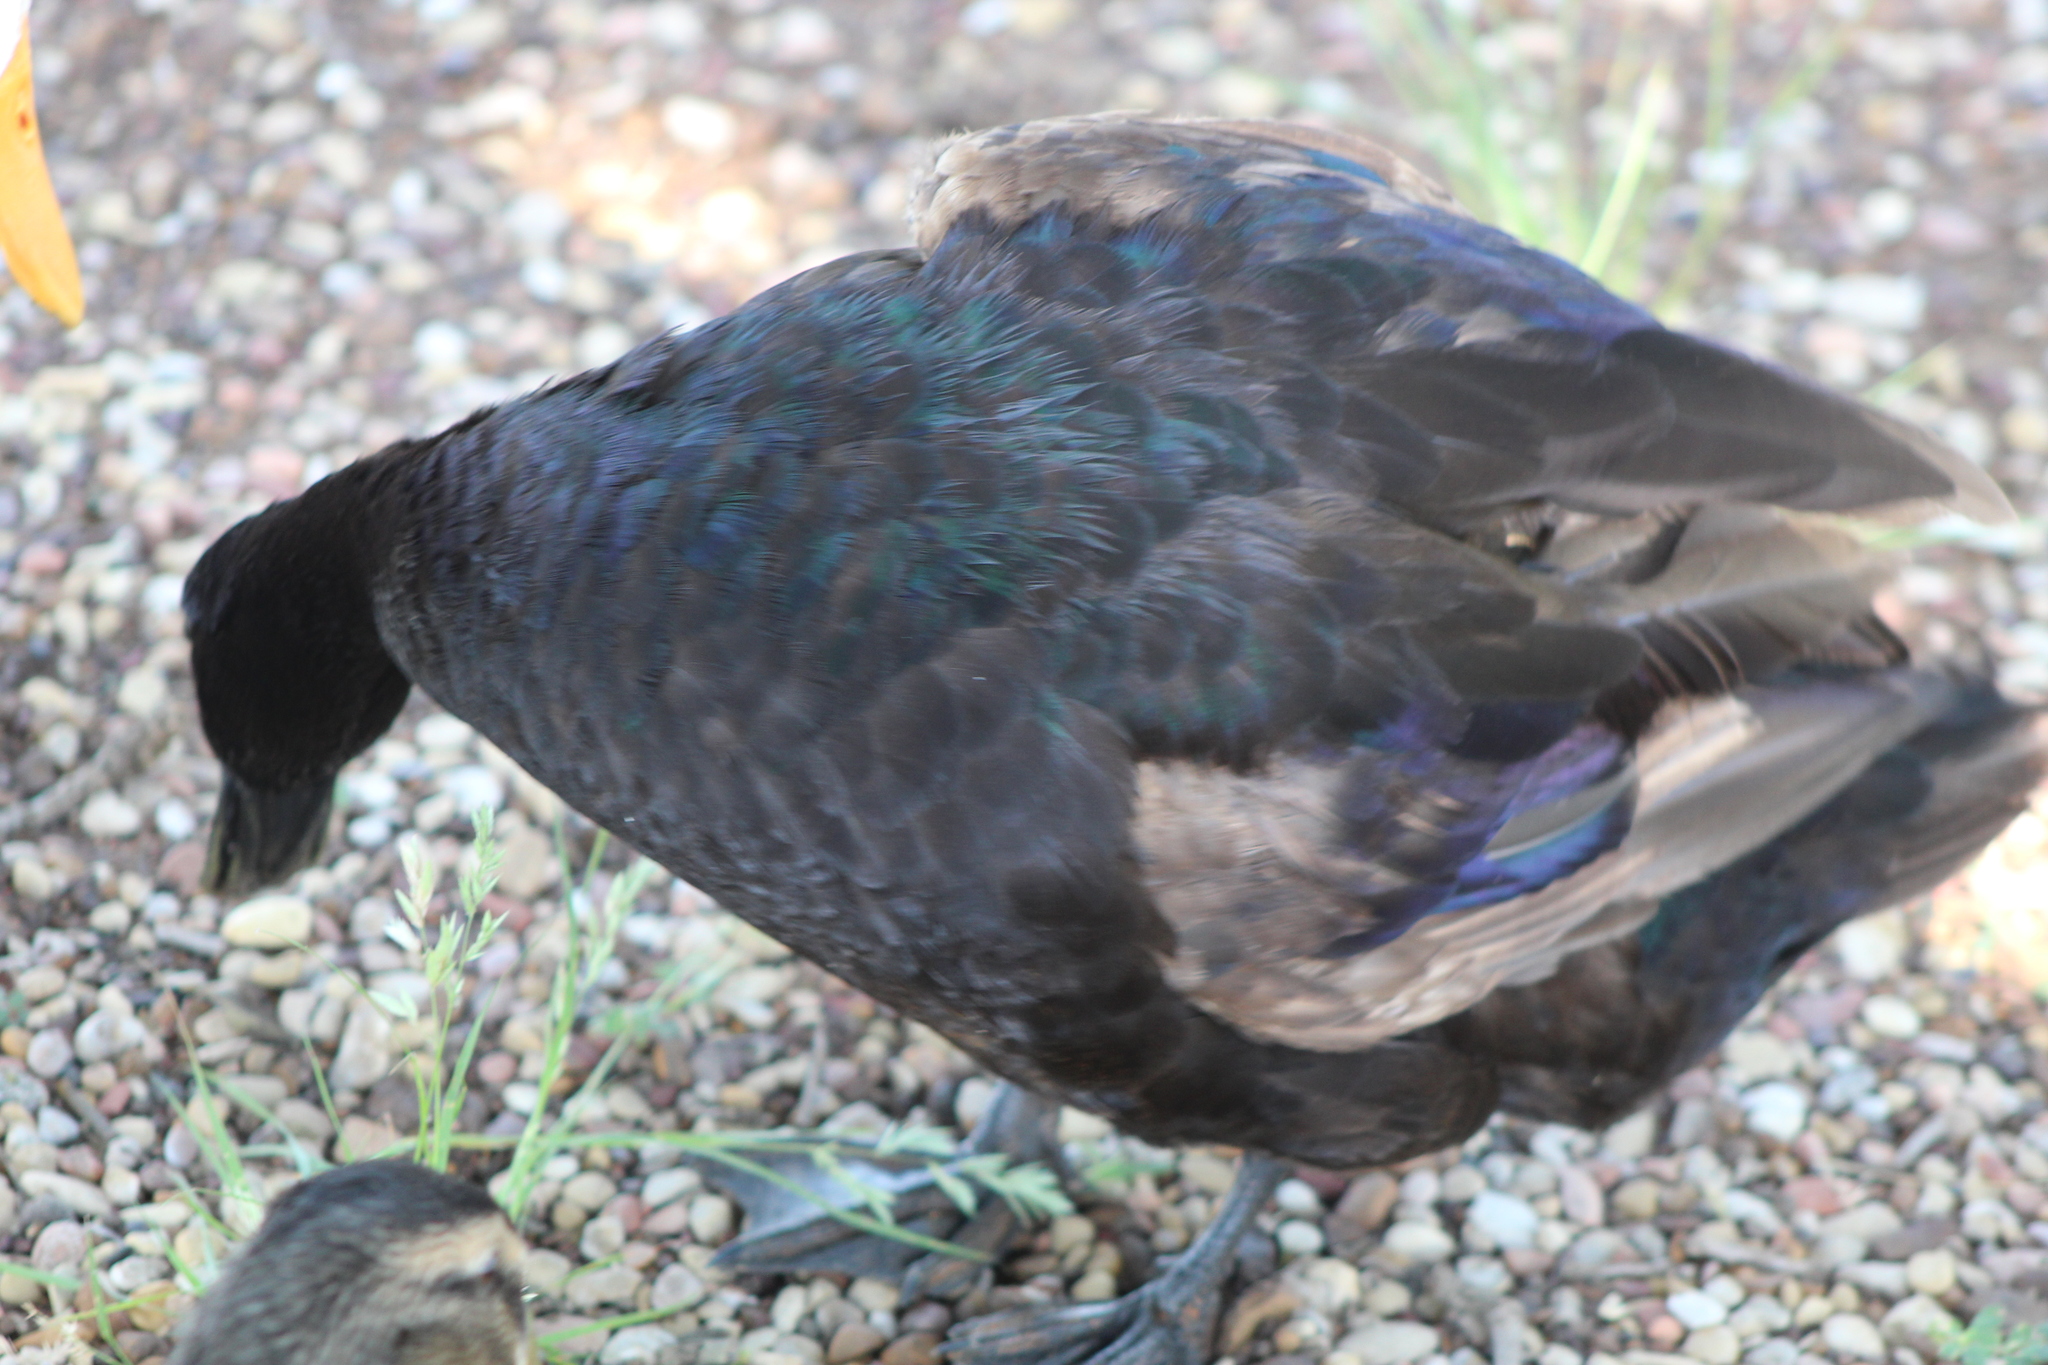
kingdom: Animalia
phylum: Chordata
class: Aves
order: Anseriformes
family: Anatidae
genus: Anas
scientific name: Anas platyrhynchos
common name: Mallard
